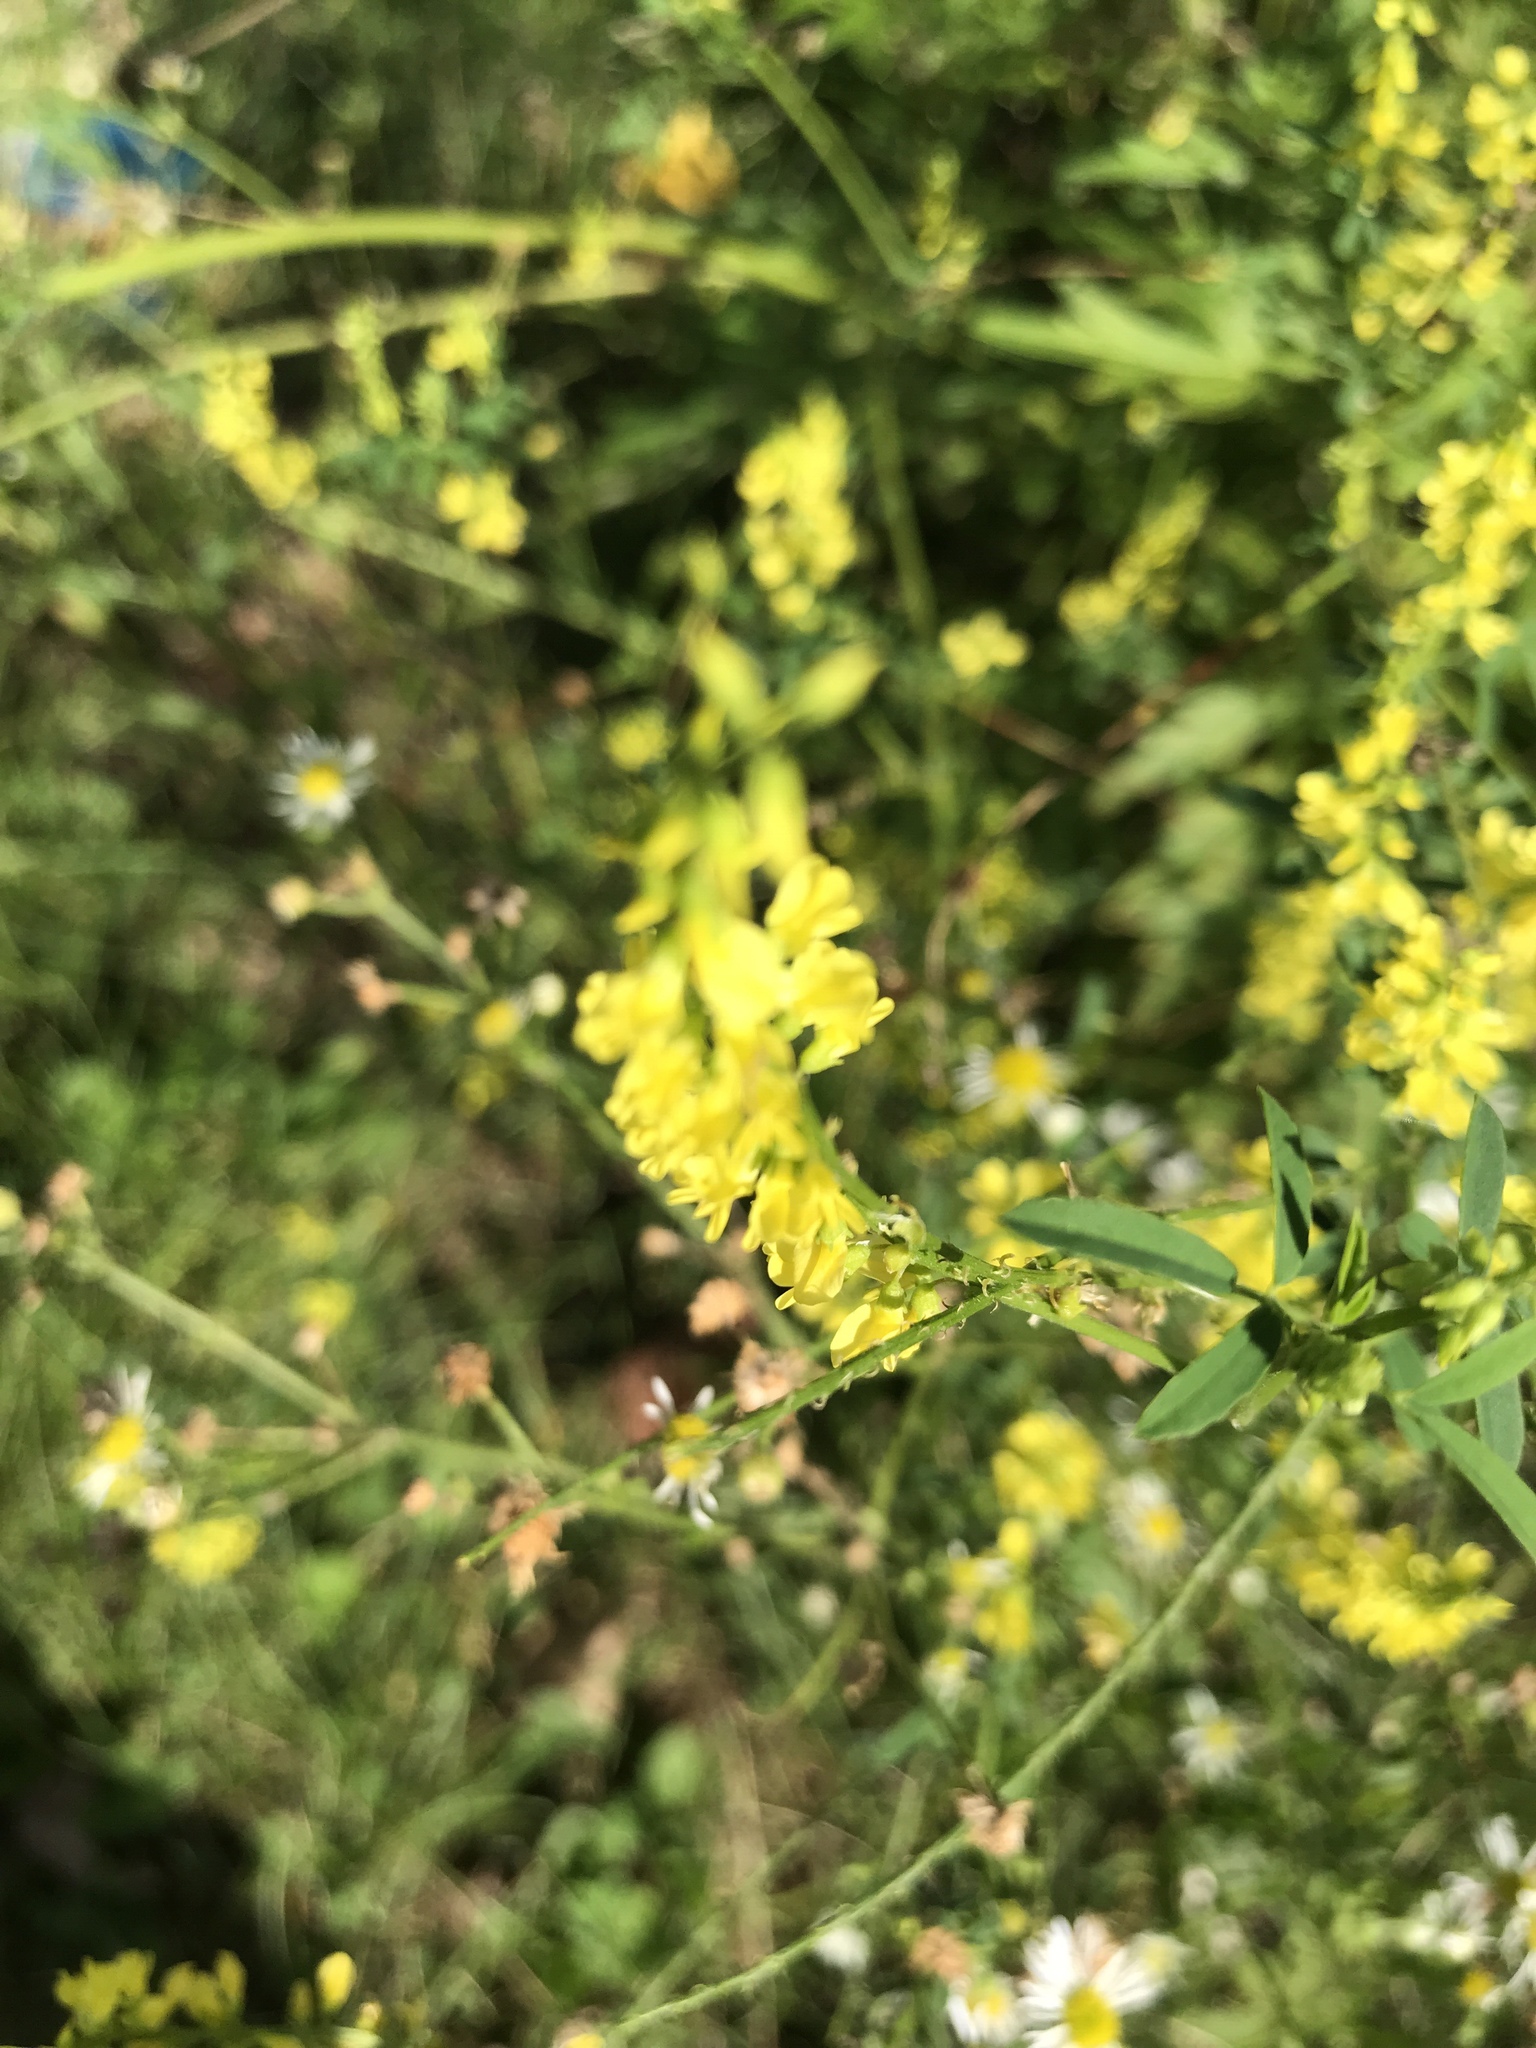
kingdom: Plantae
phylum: Tracheophyta
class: Magnoliopsida
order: Fabales
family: Fabaceae
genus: Melilotus
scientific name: Melilotus officinalis
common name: Sweetclover
